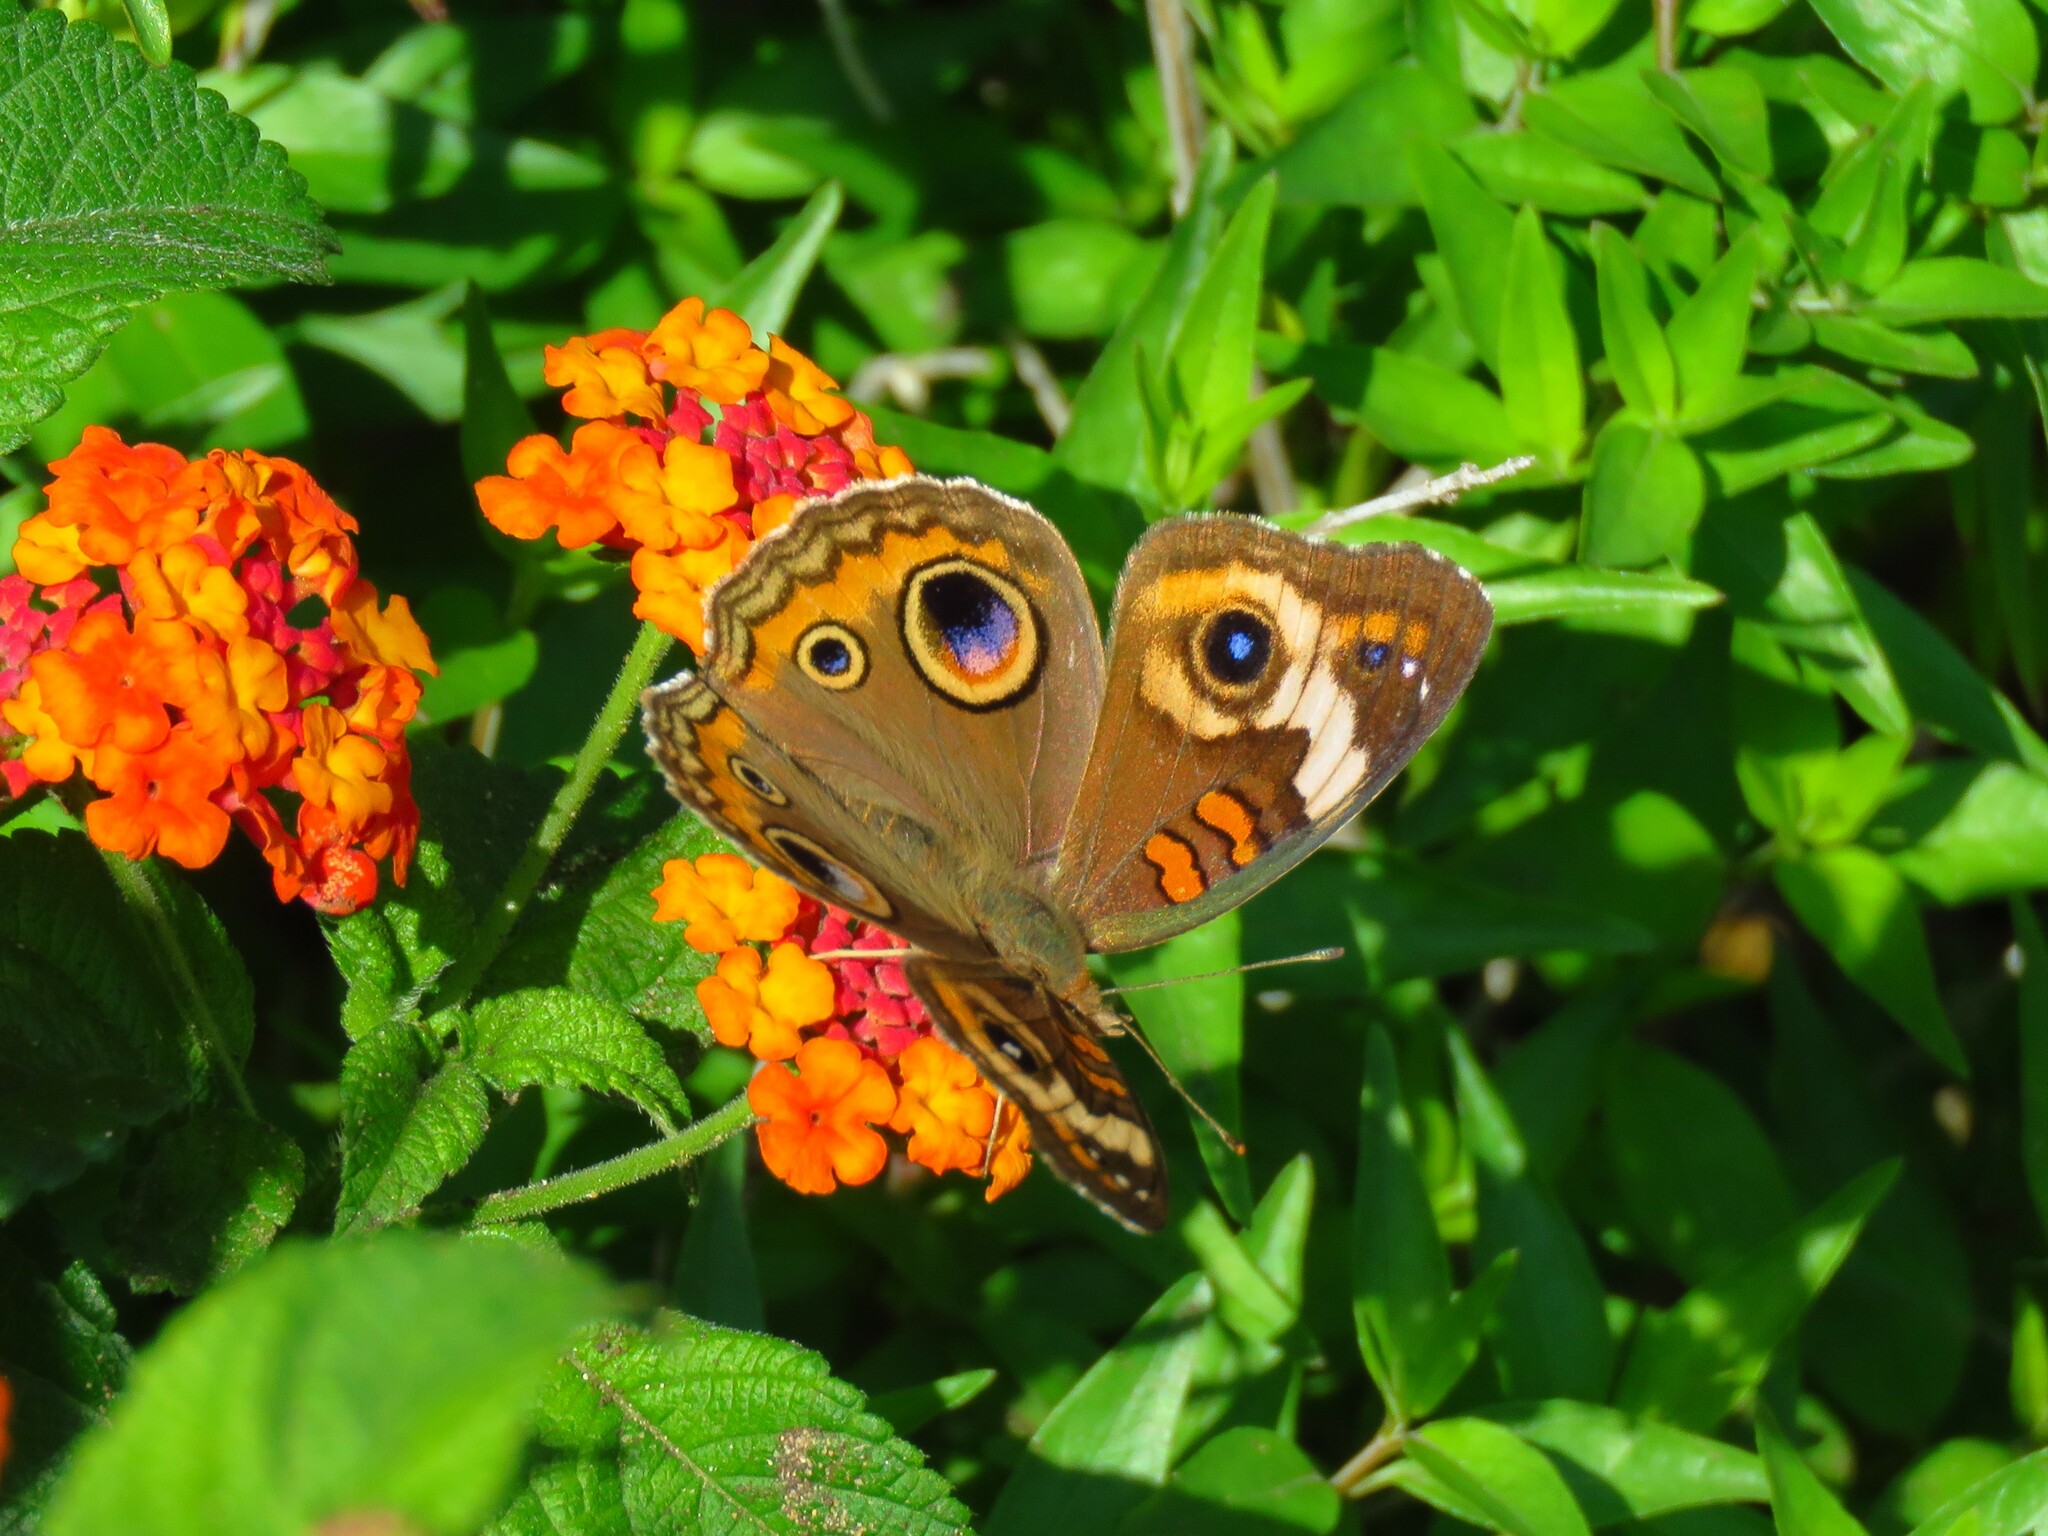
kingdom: Animalia
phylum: Arthropoda
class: Insecta
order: Lepidoptera
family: Nymphalidae
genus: Junonia
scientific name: Junonia coenia
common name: Common buckeye
